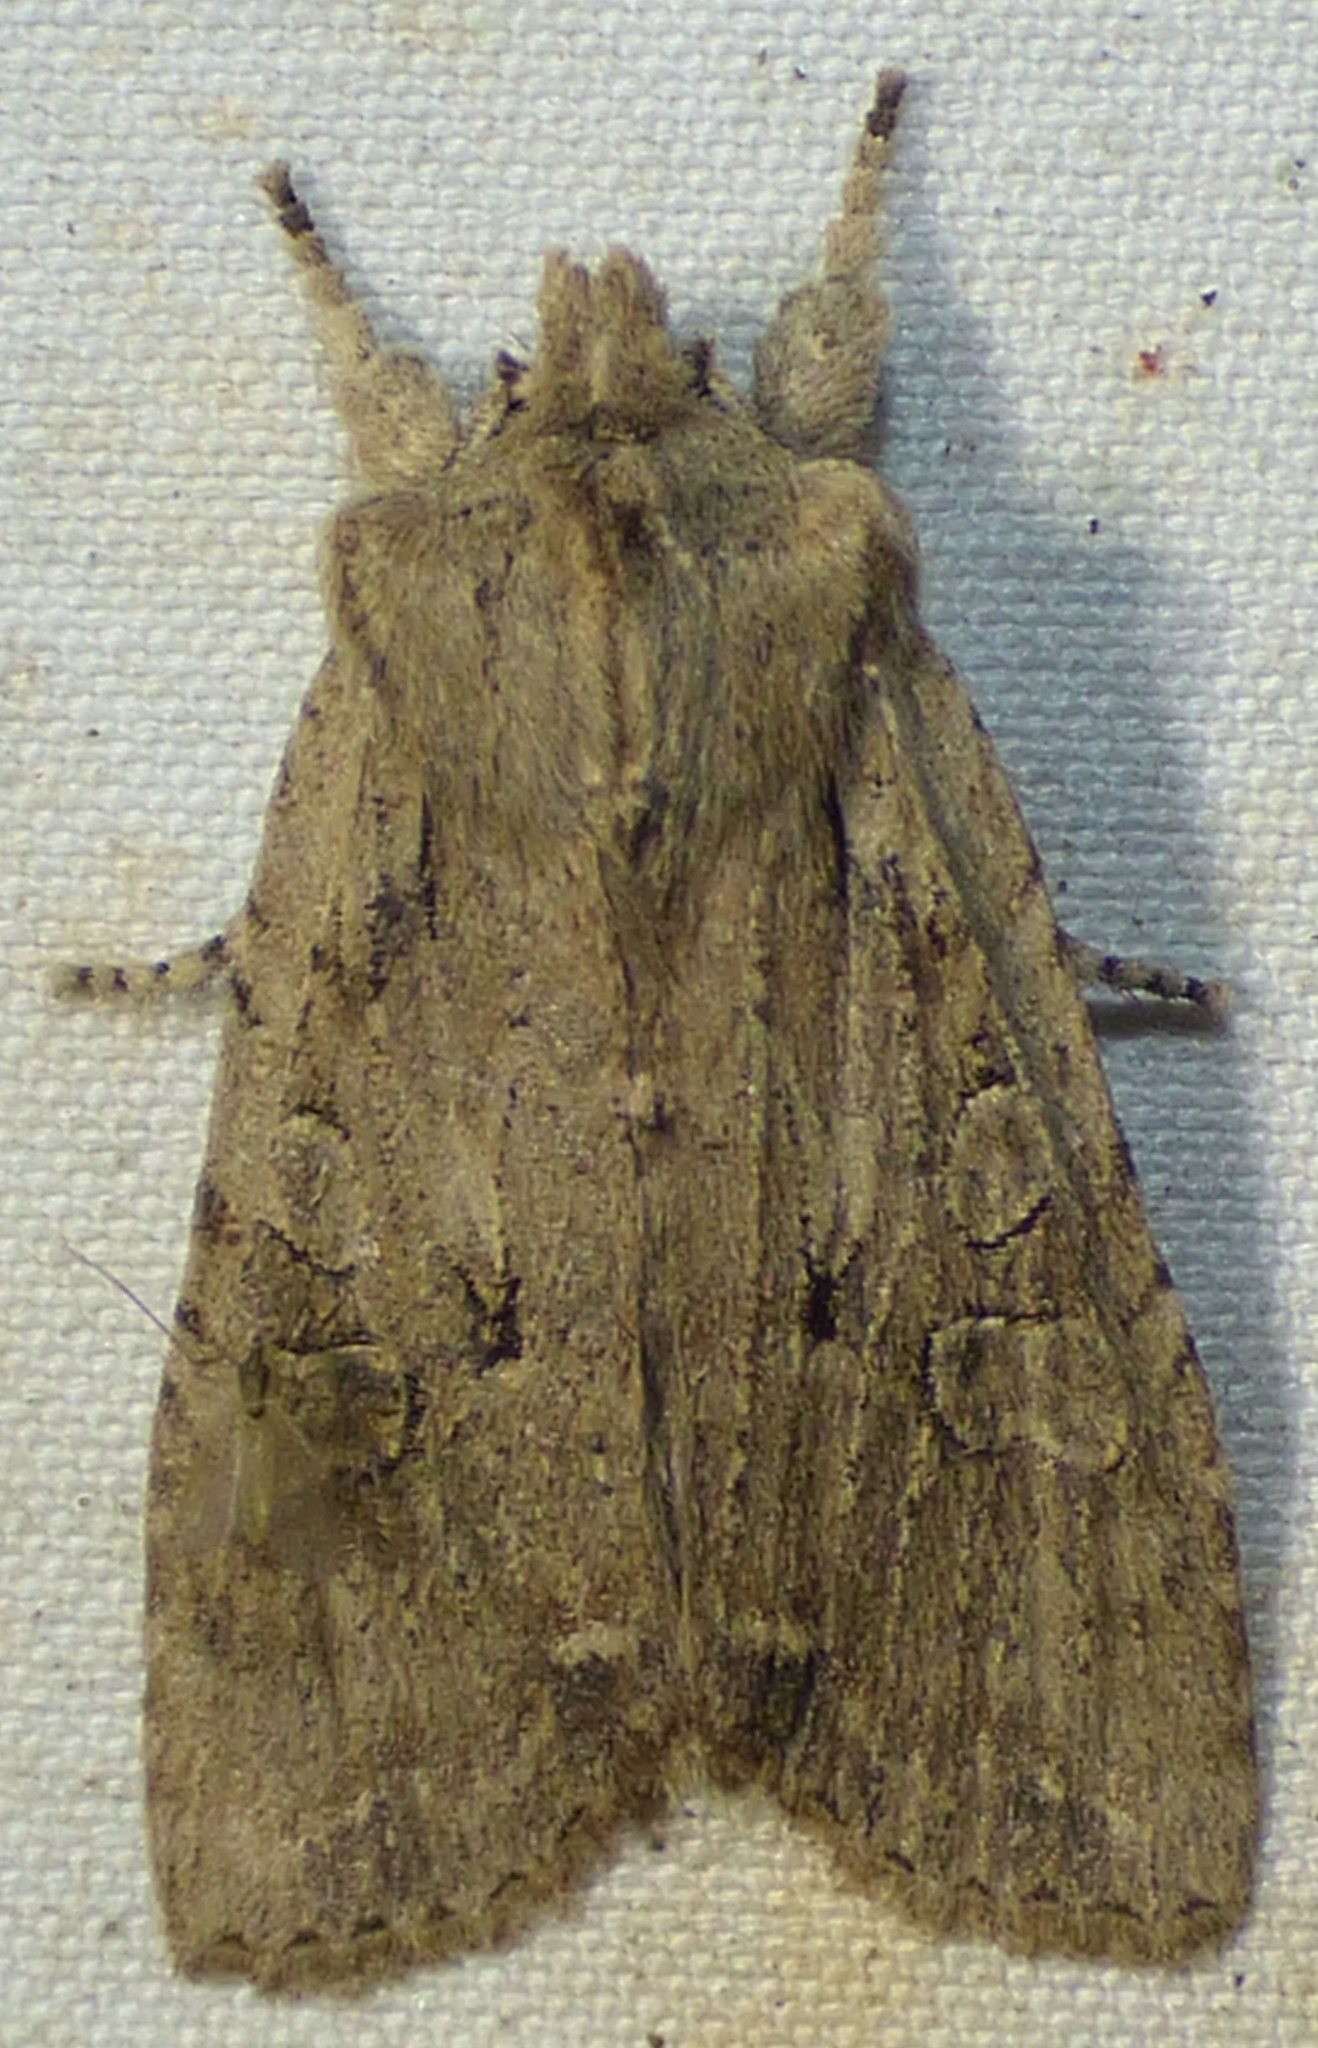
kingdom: Animalia
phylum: Arthropoda
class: Insecta
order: Lepidoptera
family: Noctuidae
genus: Lithophane
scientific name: Lithophane disposita
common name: Dashed gray pinion moth
